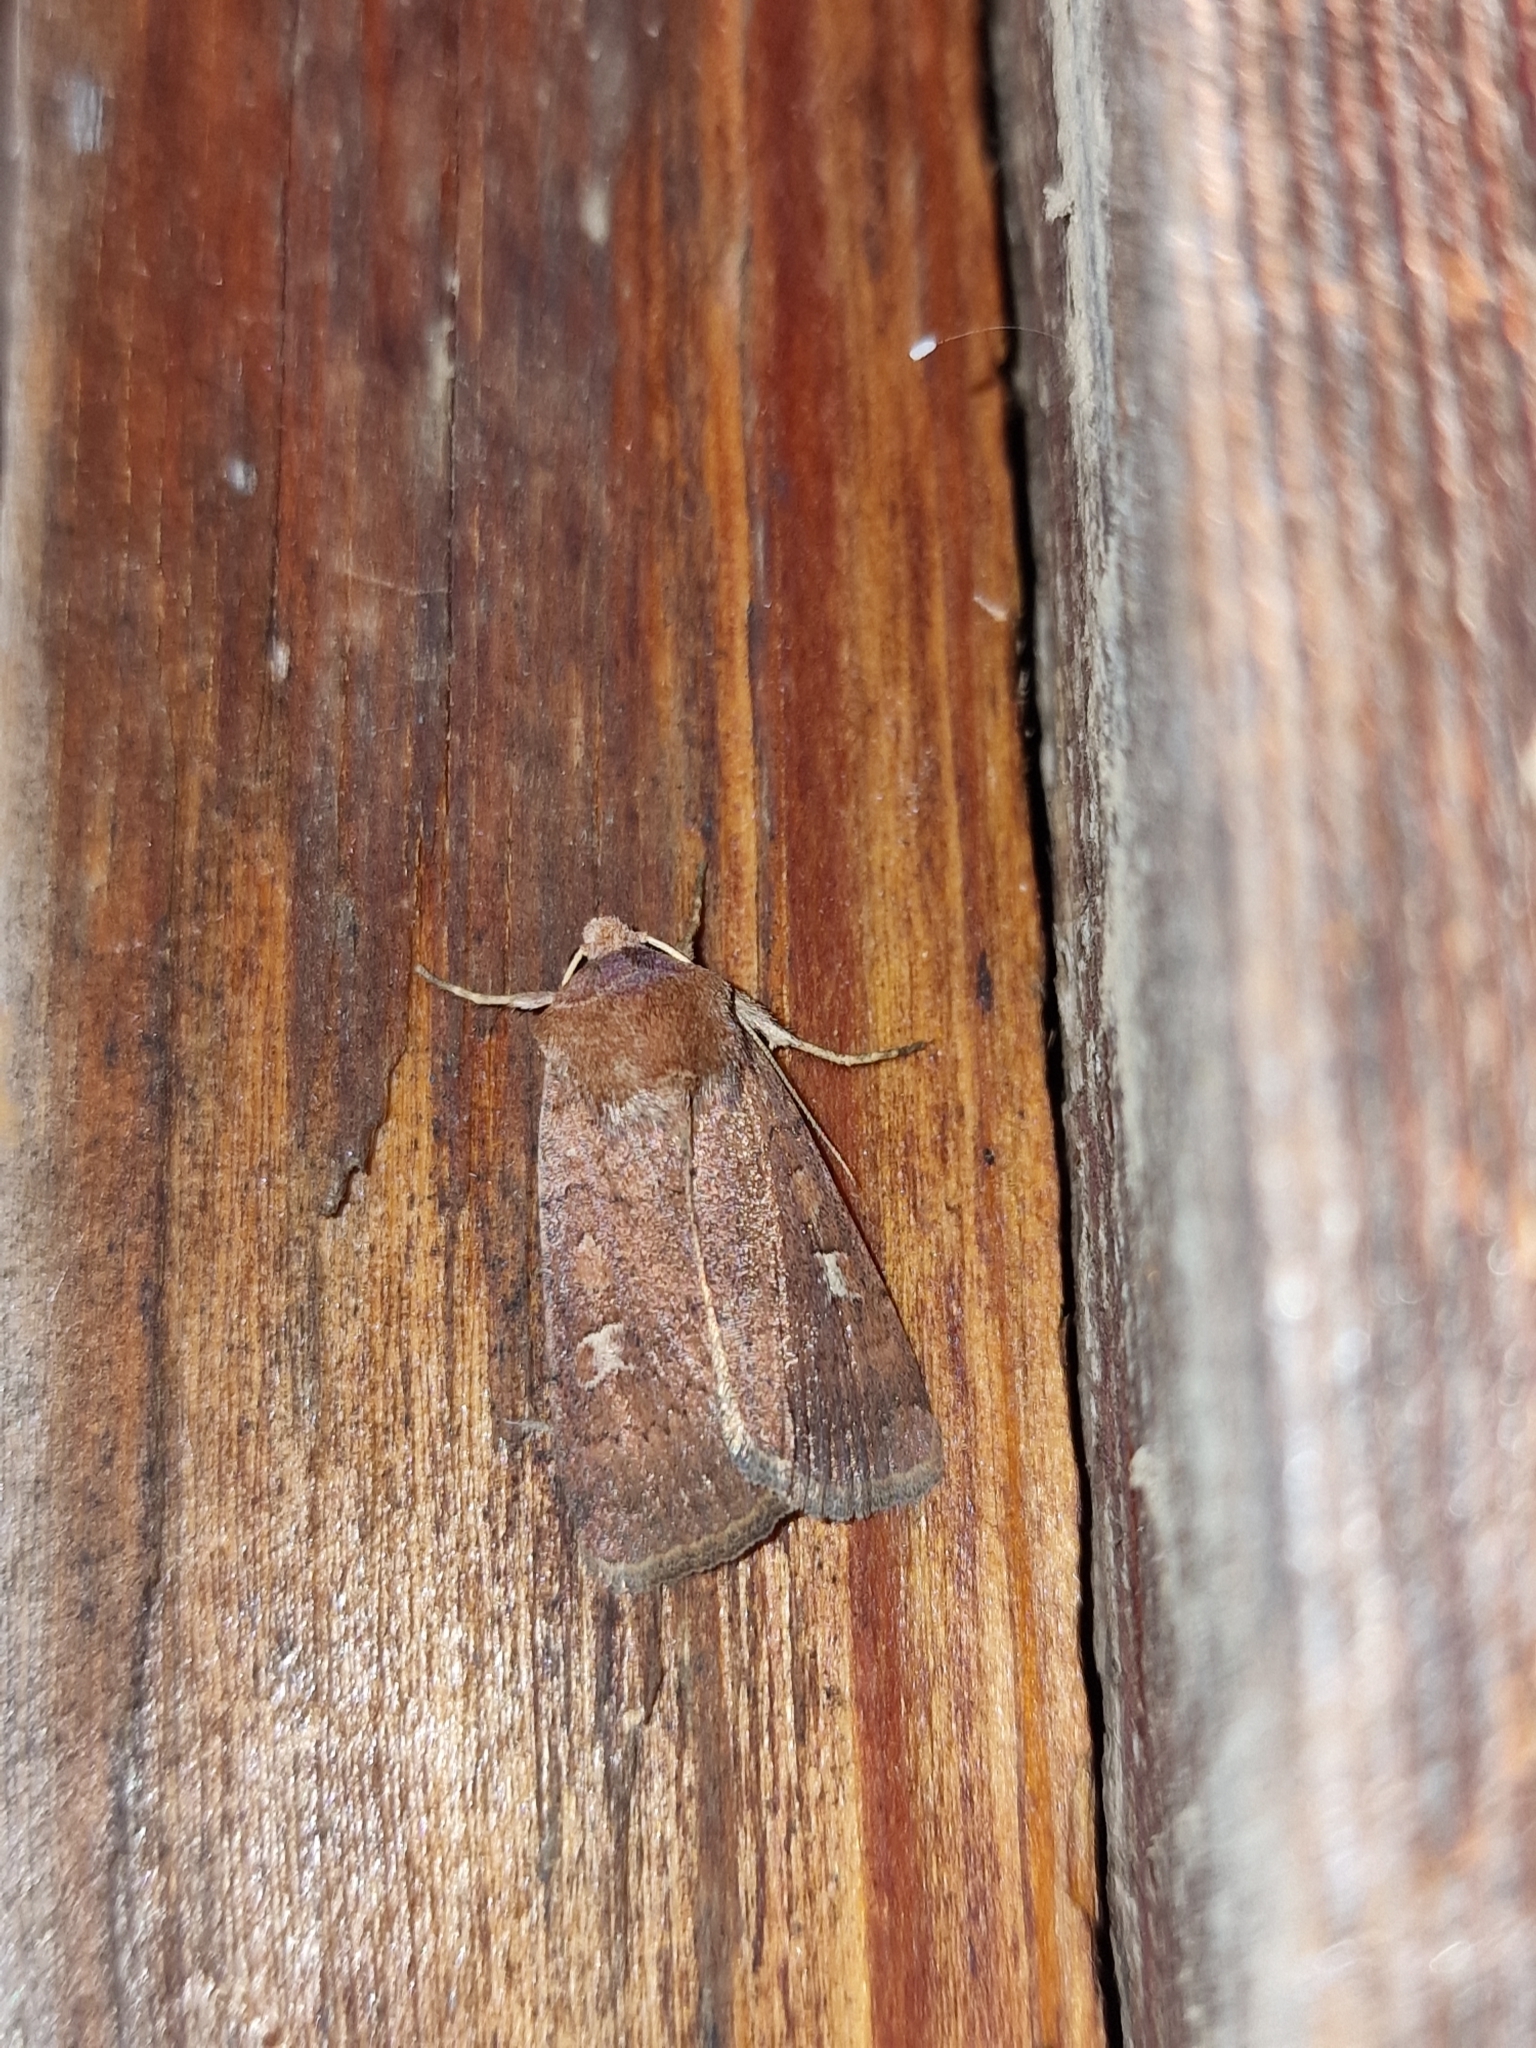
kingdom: Animalia
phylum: Arthropoda
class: Insecta
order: Lepidoptera
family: Noctuidae
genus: Xestia
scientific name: Xestia xanthographa
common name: Square-spot rustic
